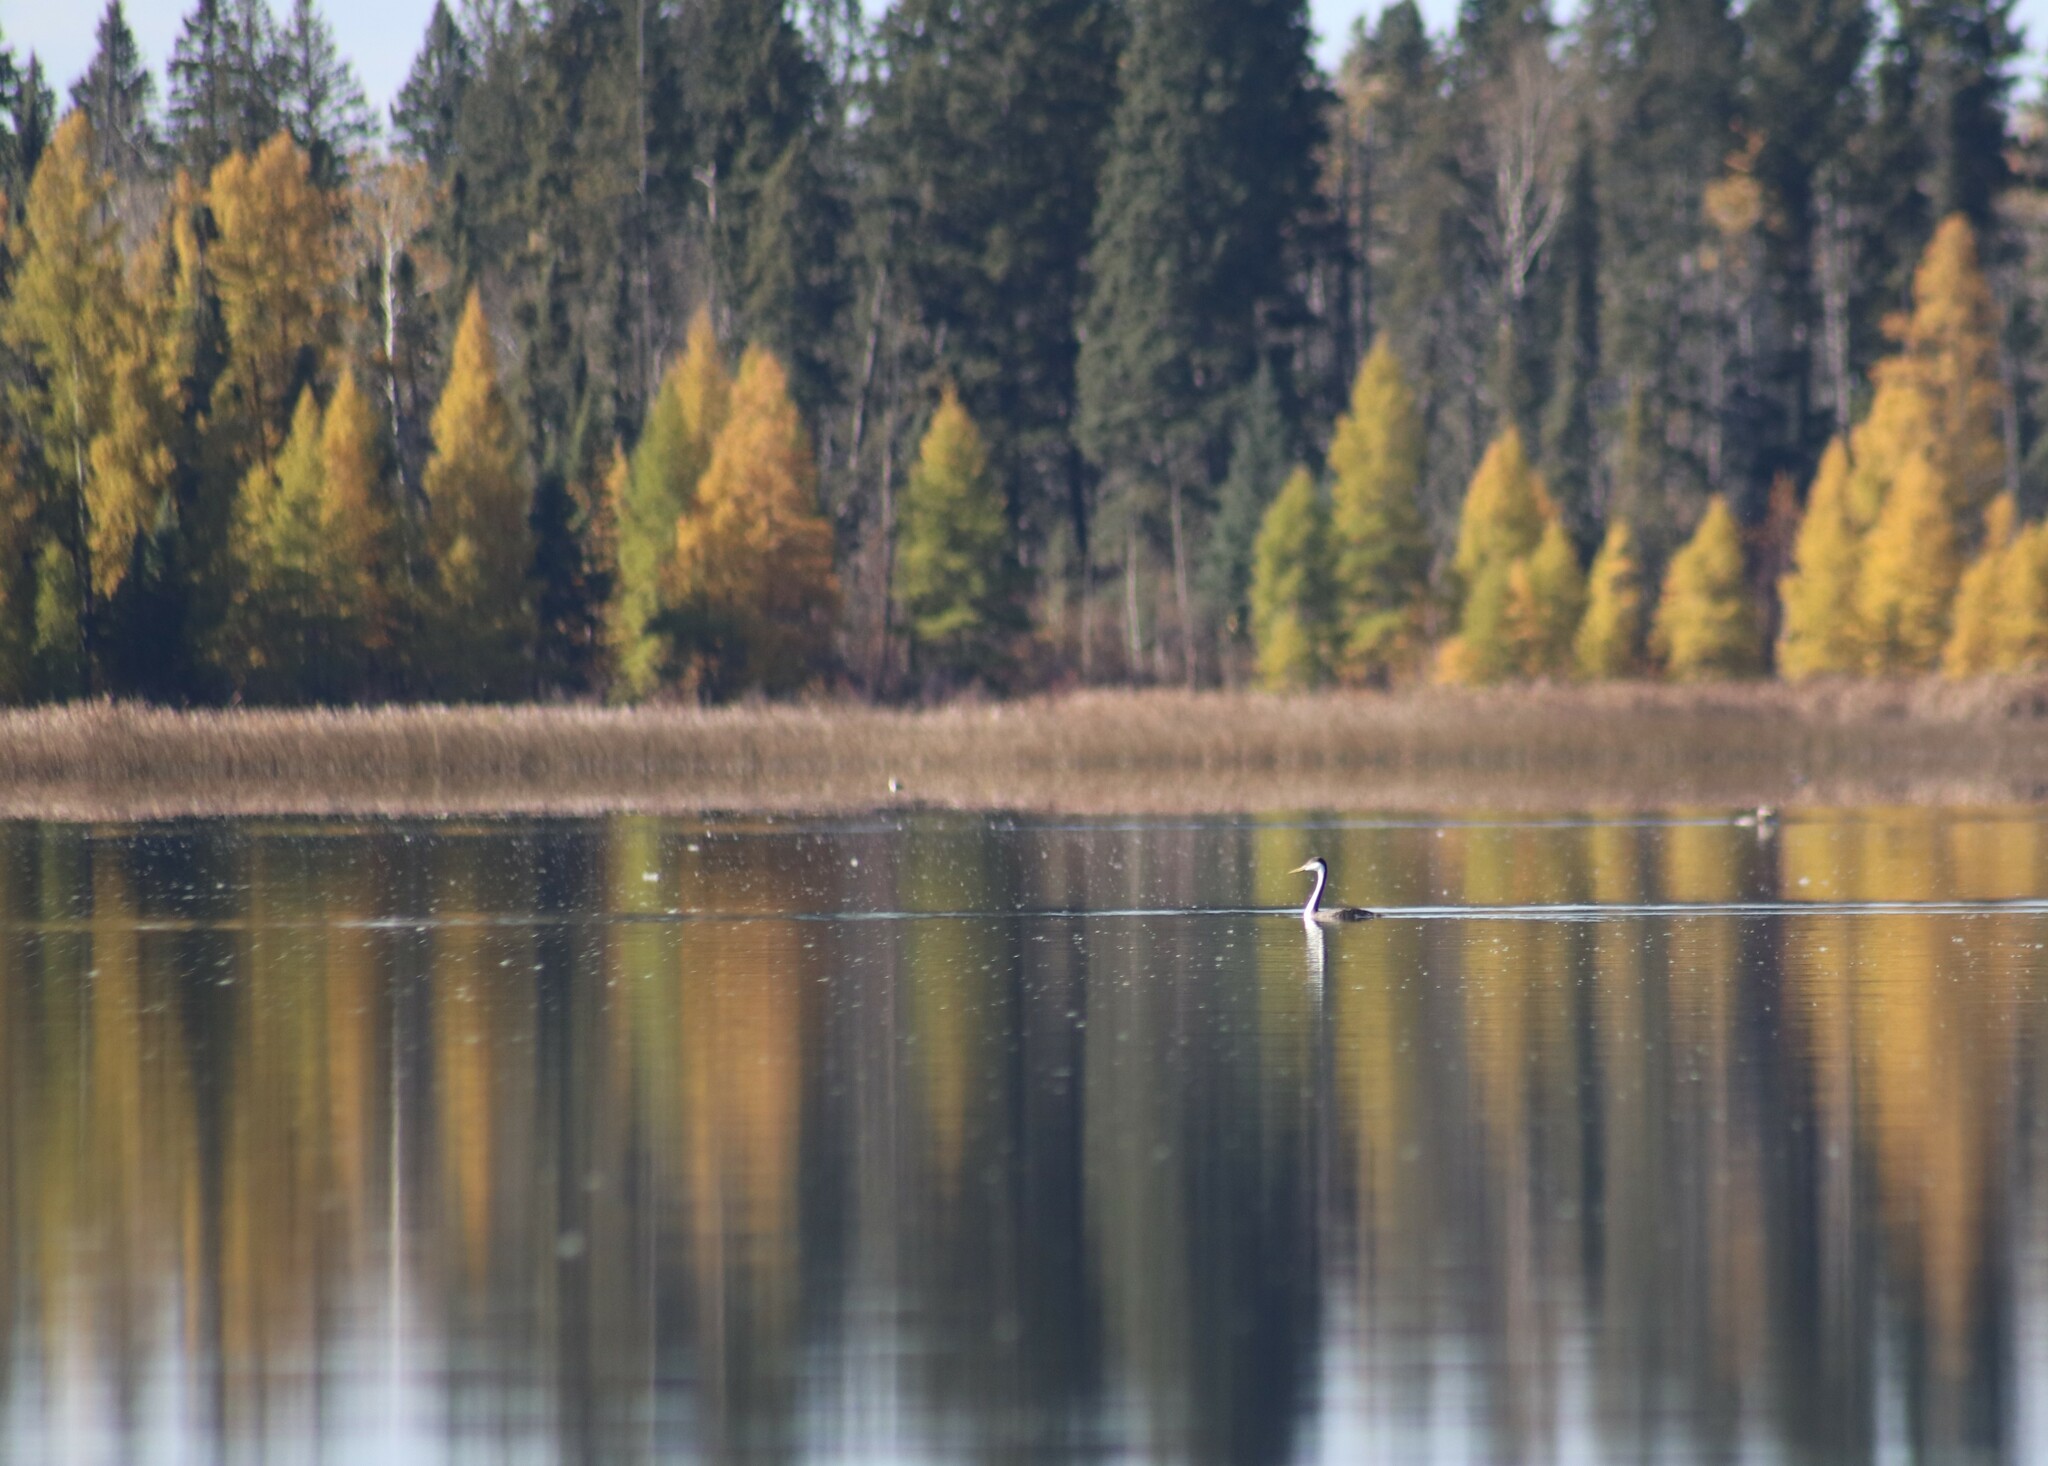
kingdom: Animalia
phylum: Chordata
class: Aves
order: Podicipediformes
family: Podicipedidae
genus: Aechmophorus
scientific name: Aechmophorus occidentalis
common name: Western grebe
